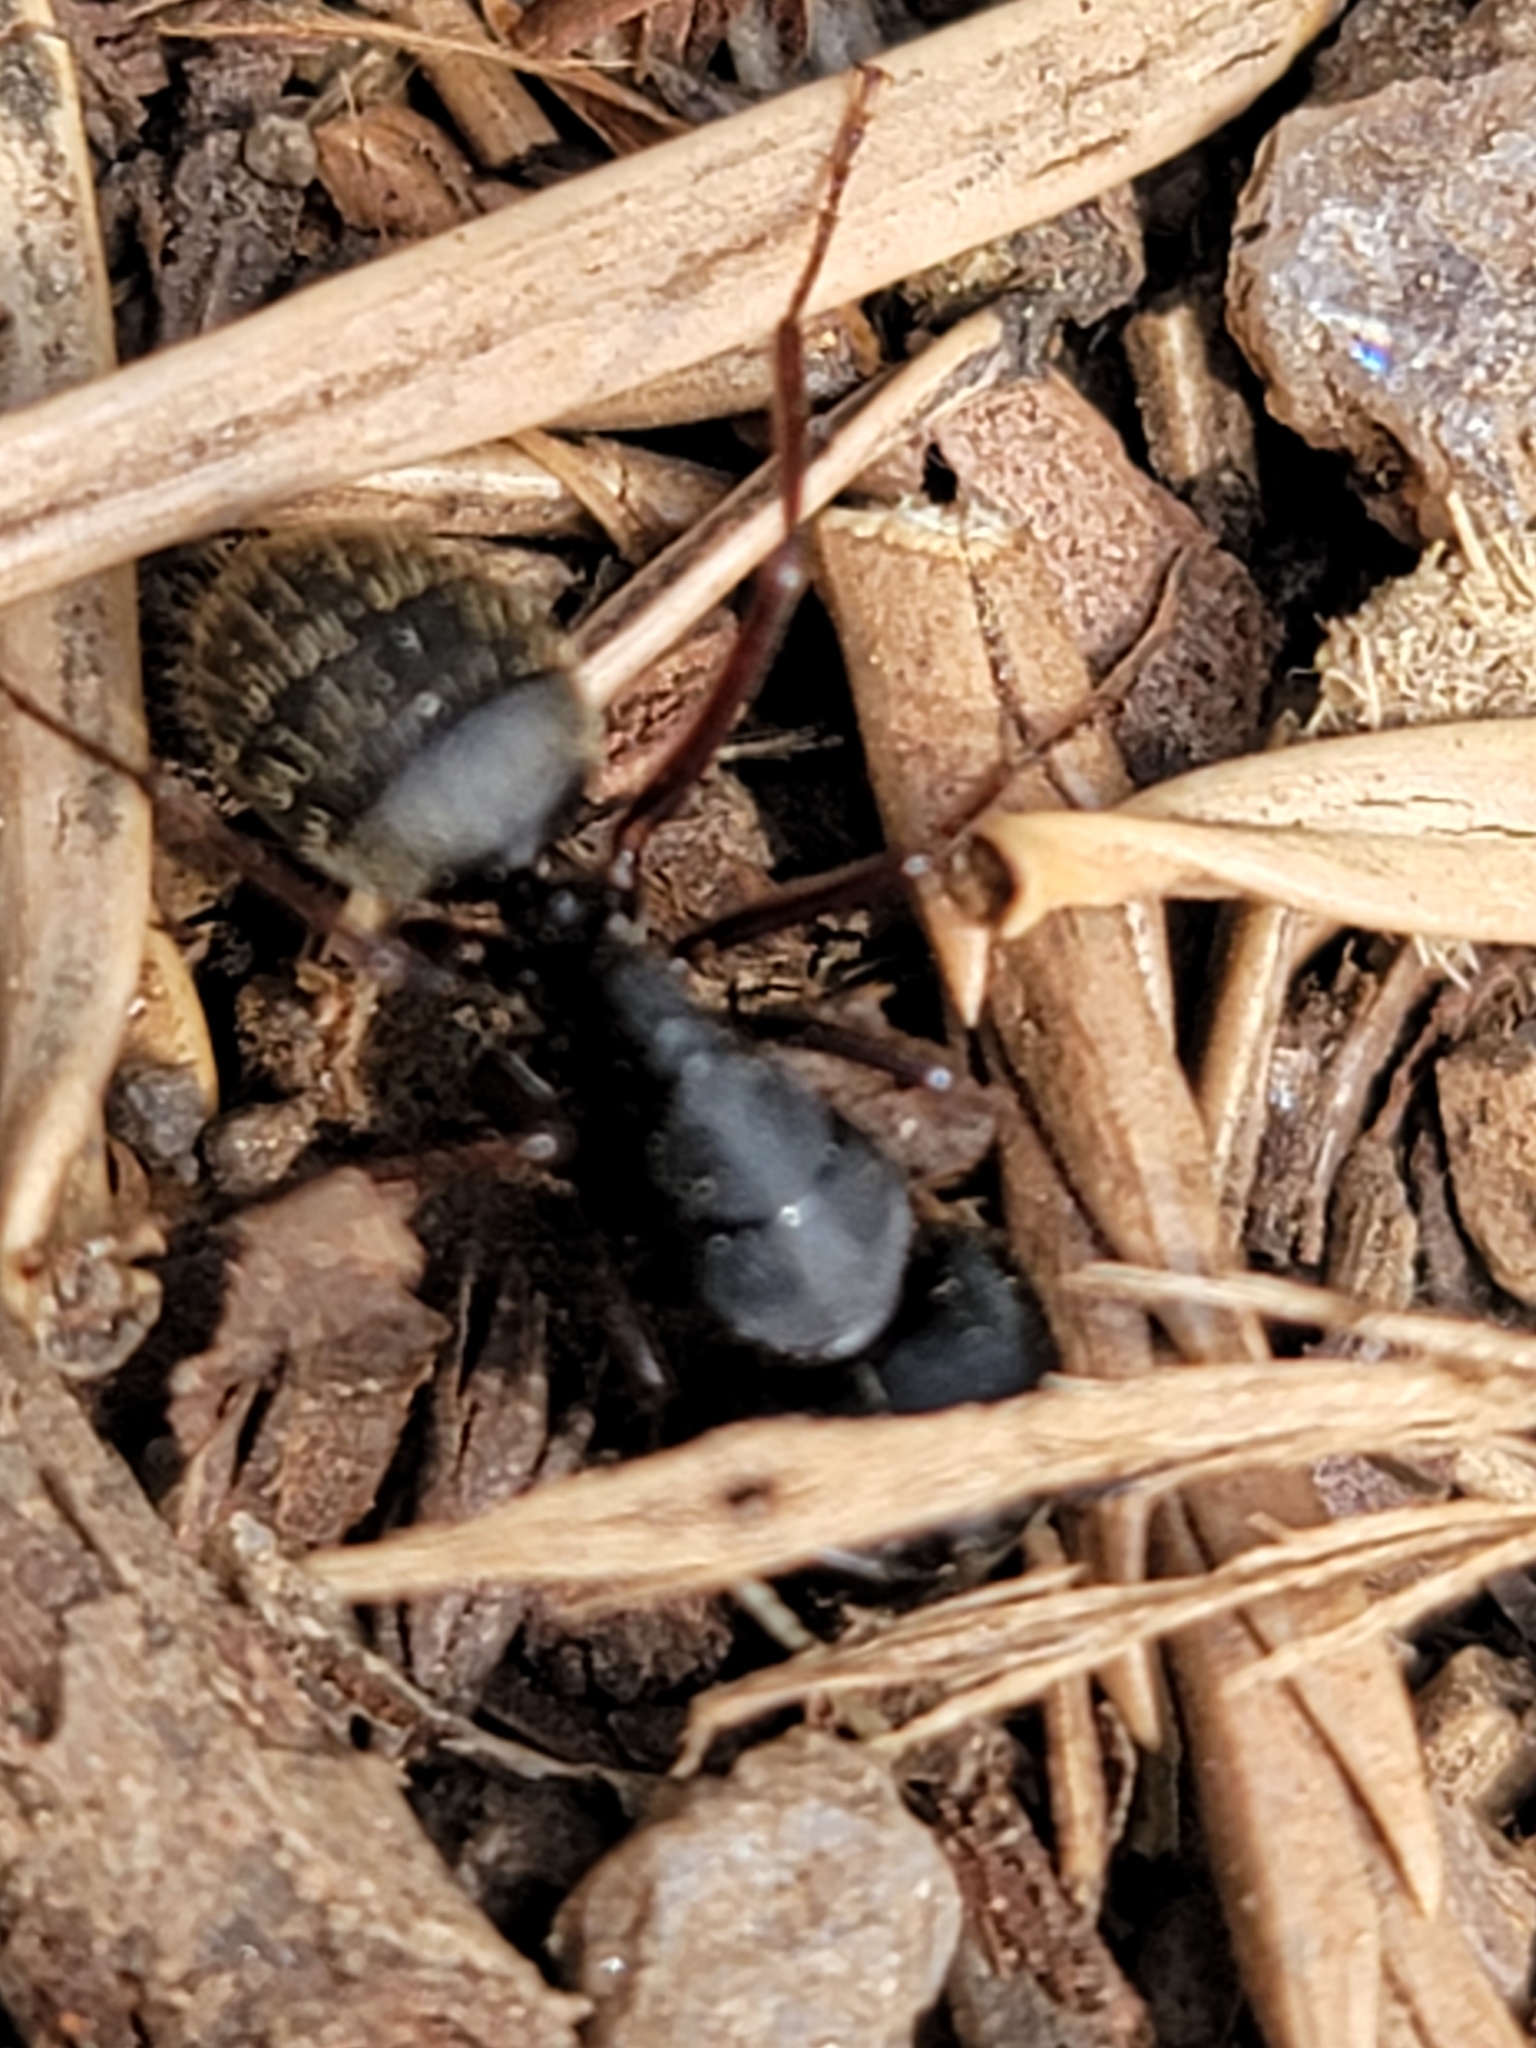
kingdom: Animalia
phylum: Arthropoda
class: Insecta
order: Hymenoptera
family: Formicidae
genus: Camponotus
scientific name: Camponotus modoc
